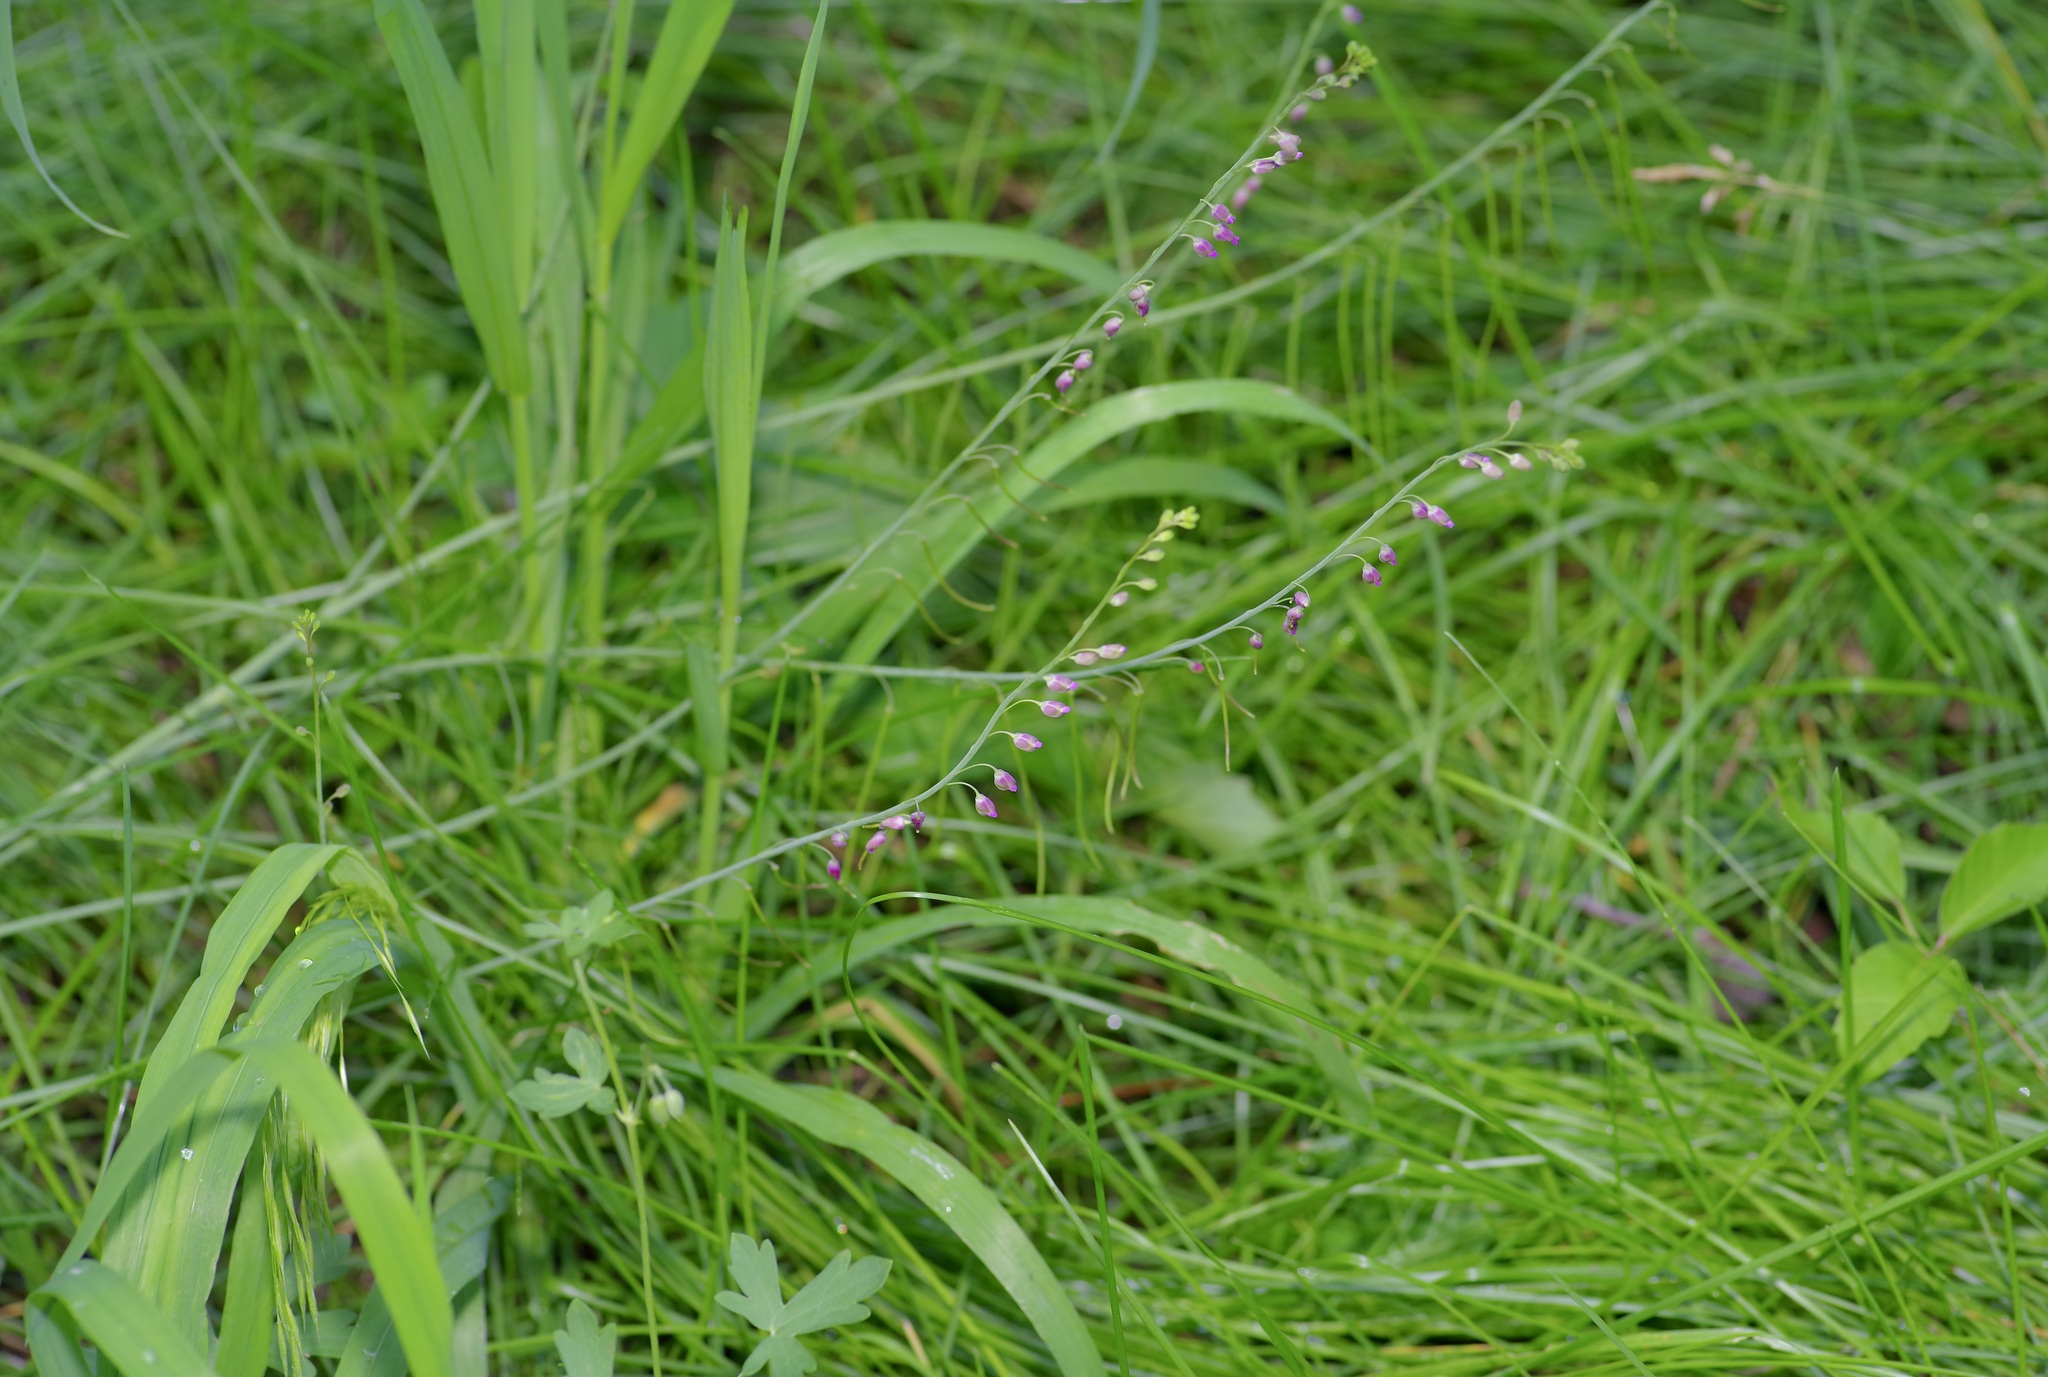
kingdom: Plantae
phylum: Tracheophyta
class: Magnoliopsida
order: Brassicales
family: Brassicaceae
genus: Pennellia
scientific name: Pennellia longifolia
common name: Longleaf mock thelypody
